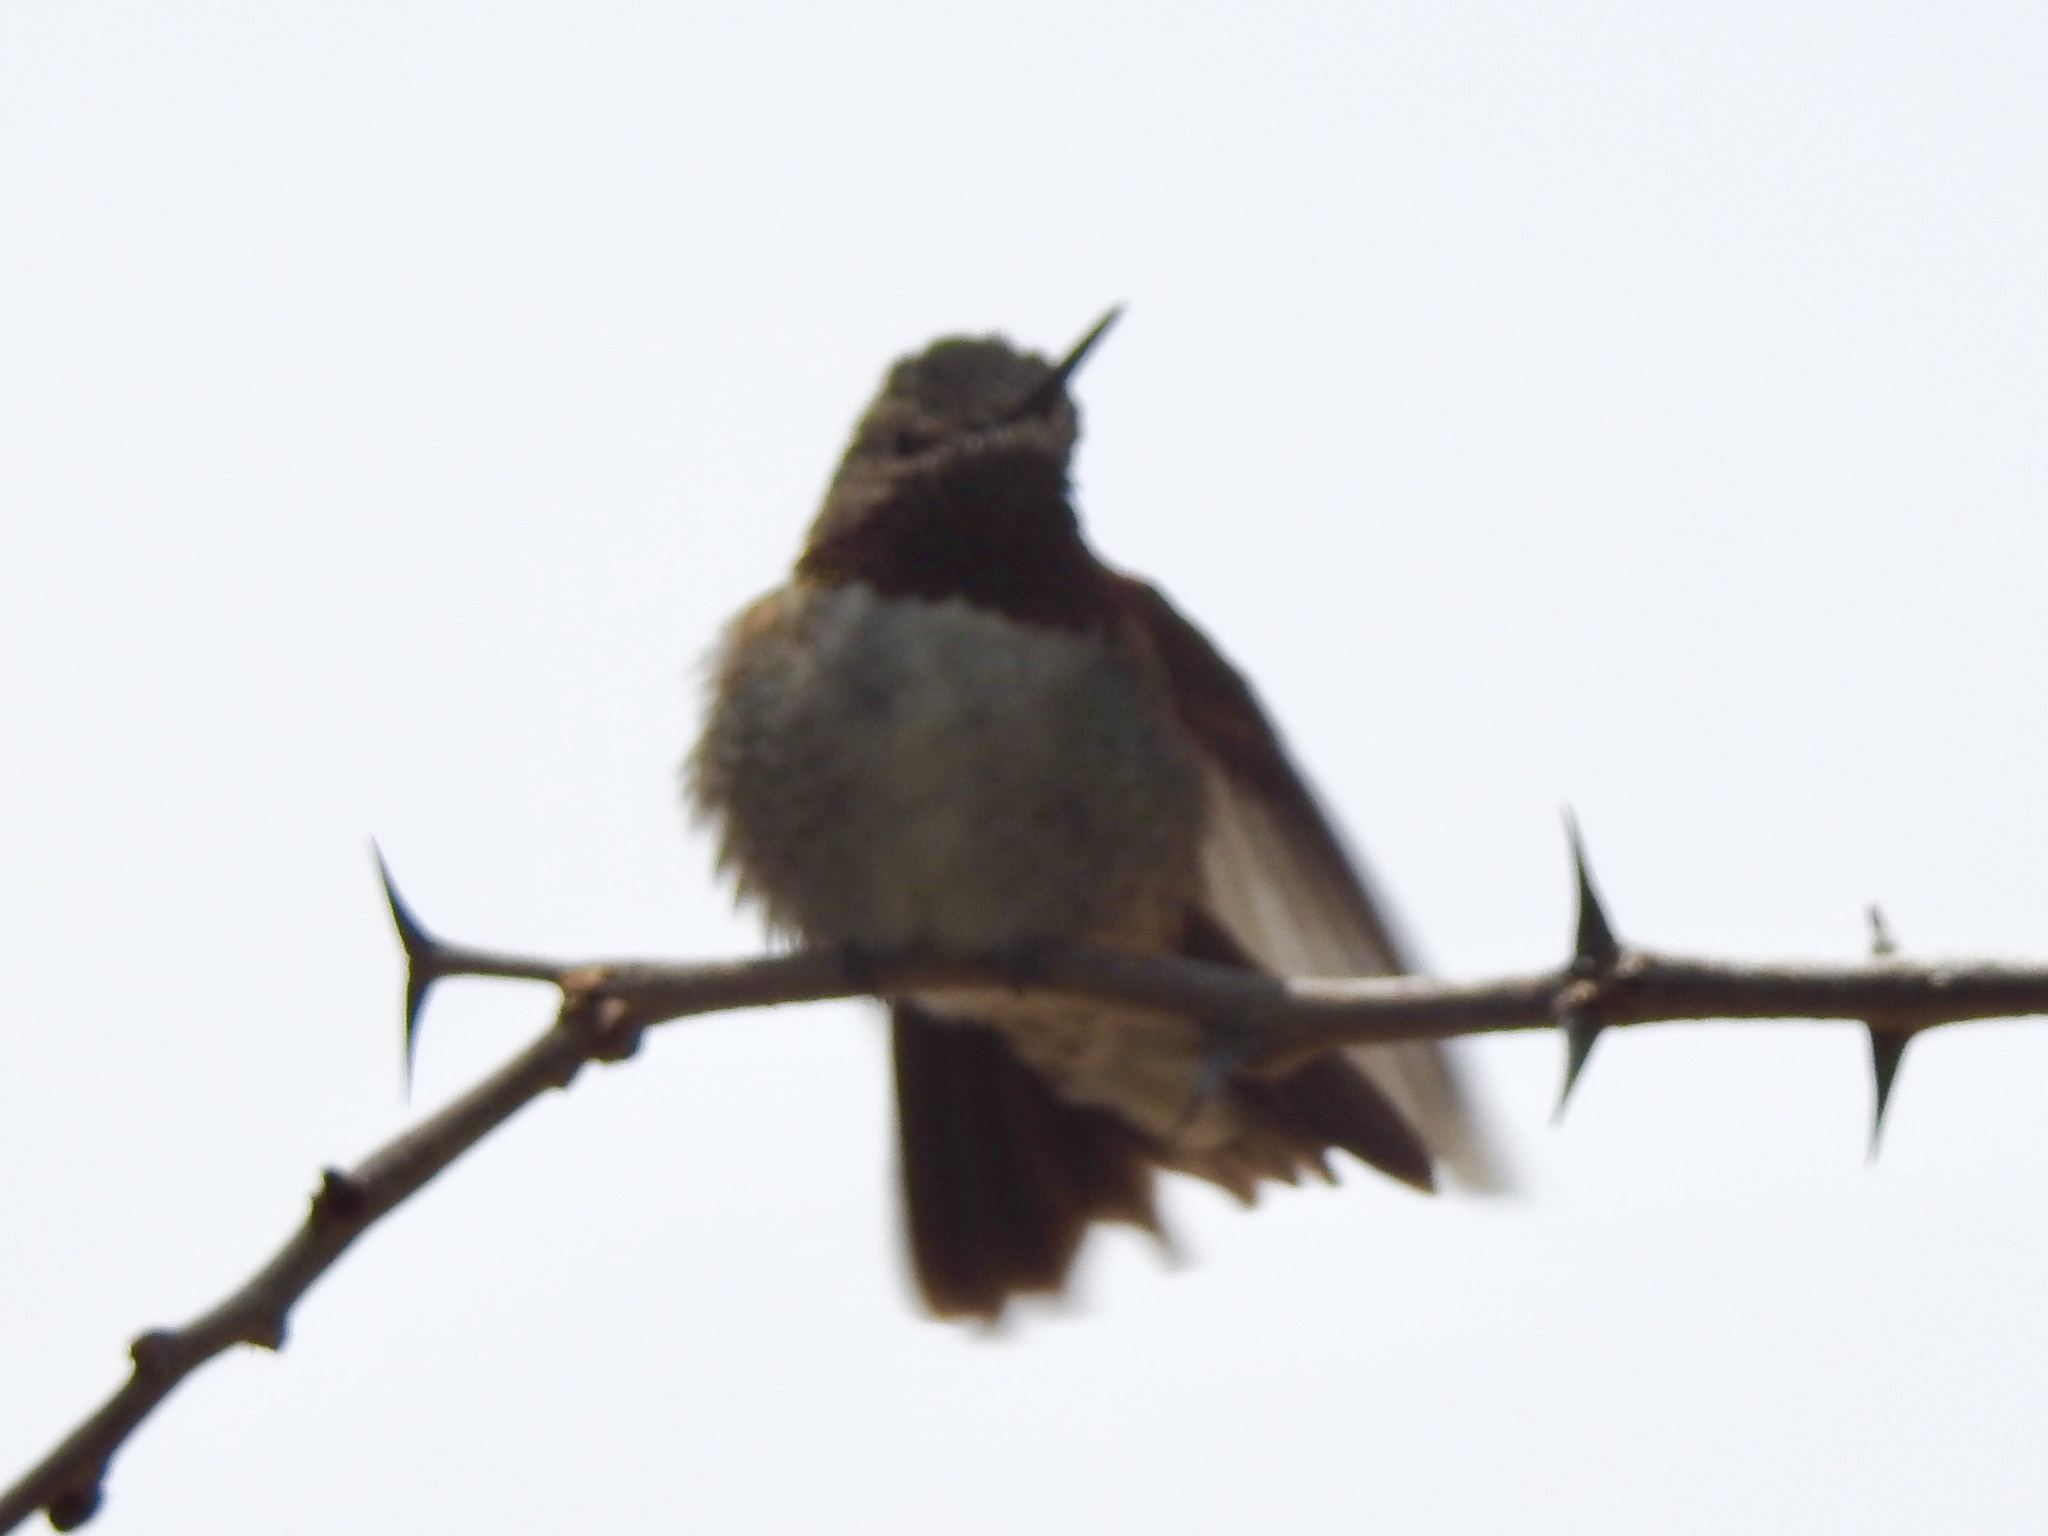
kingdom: Animalia
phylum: Chordata
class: Aves
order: Apodiformes
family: Trochilidae
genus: Selasphorus
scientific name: Selasphorus platycercus
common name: Broad-tailed hummingbird
